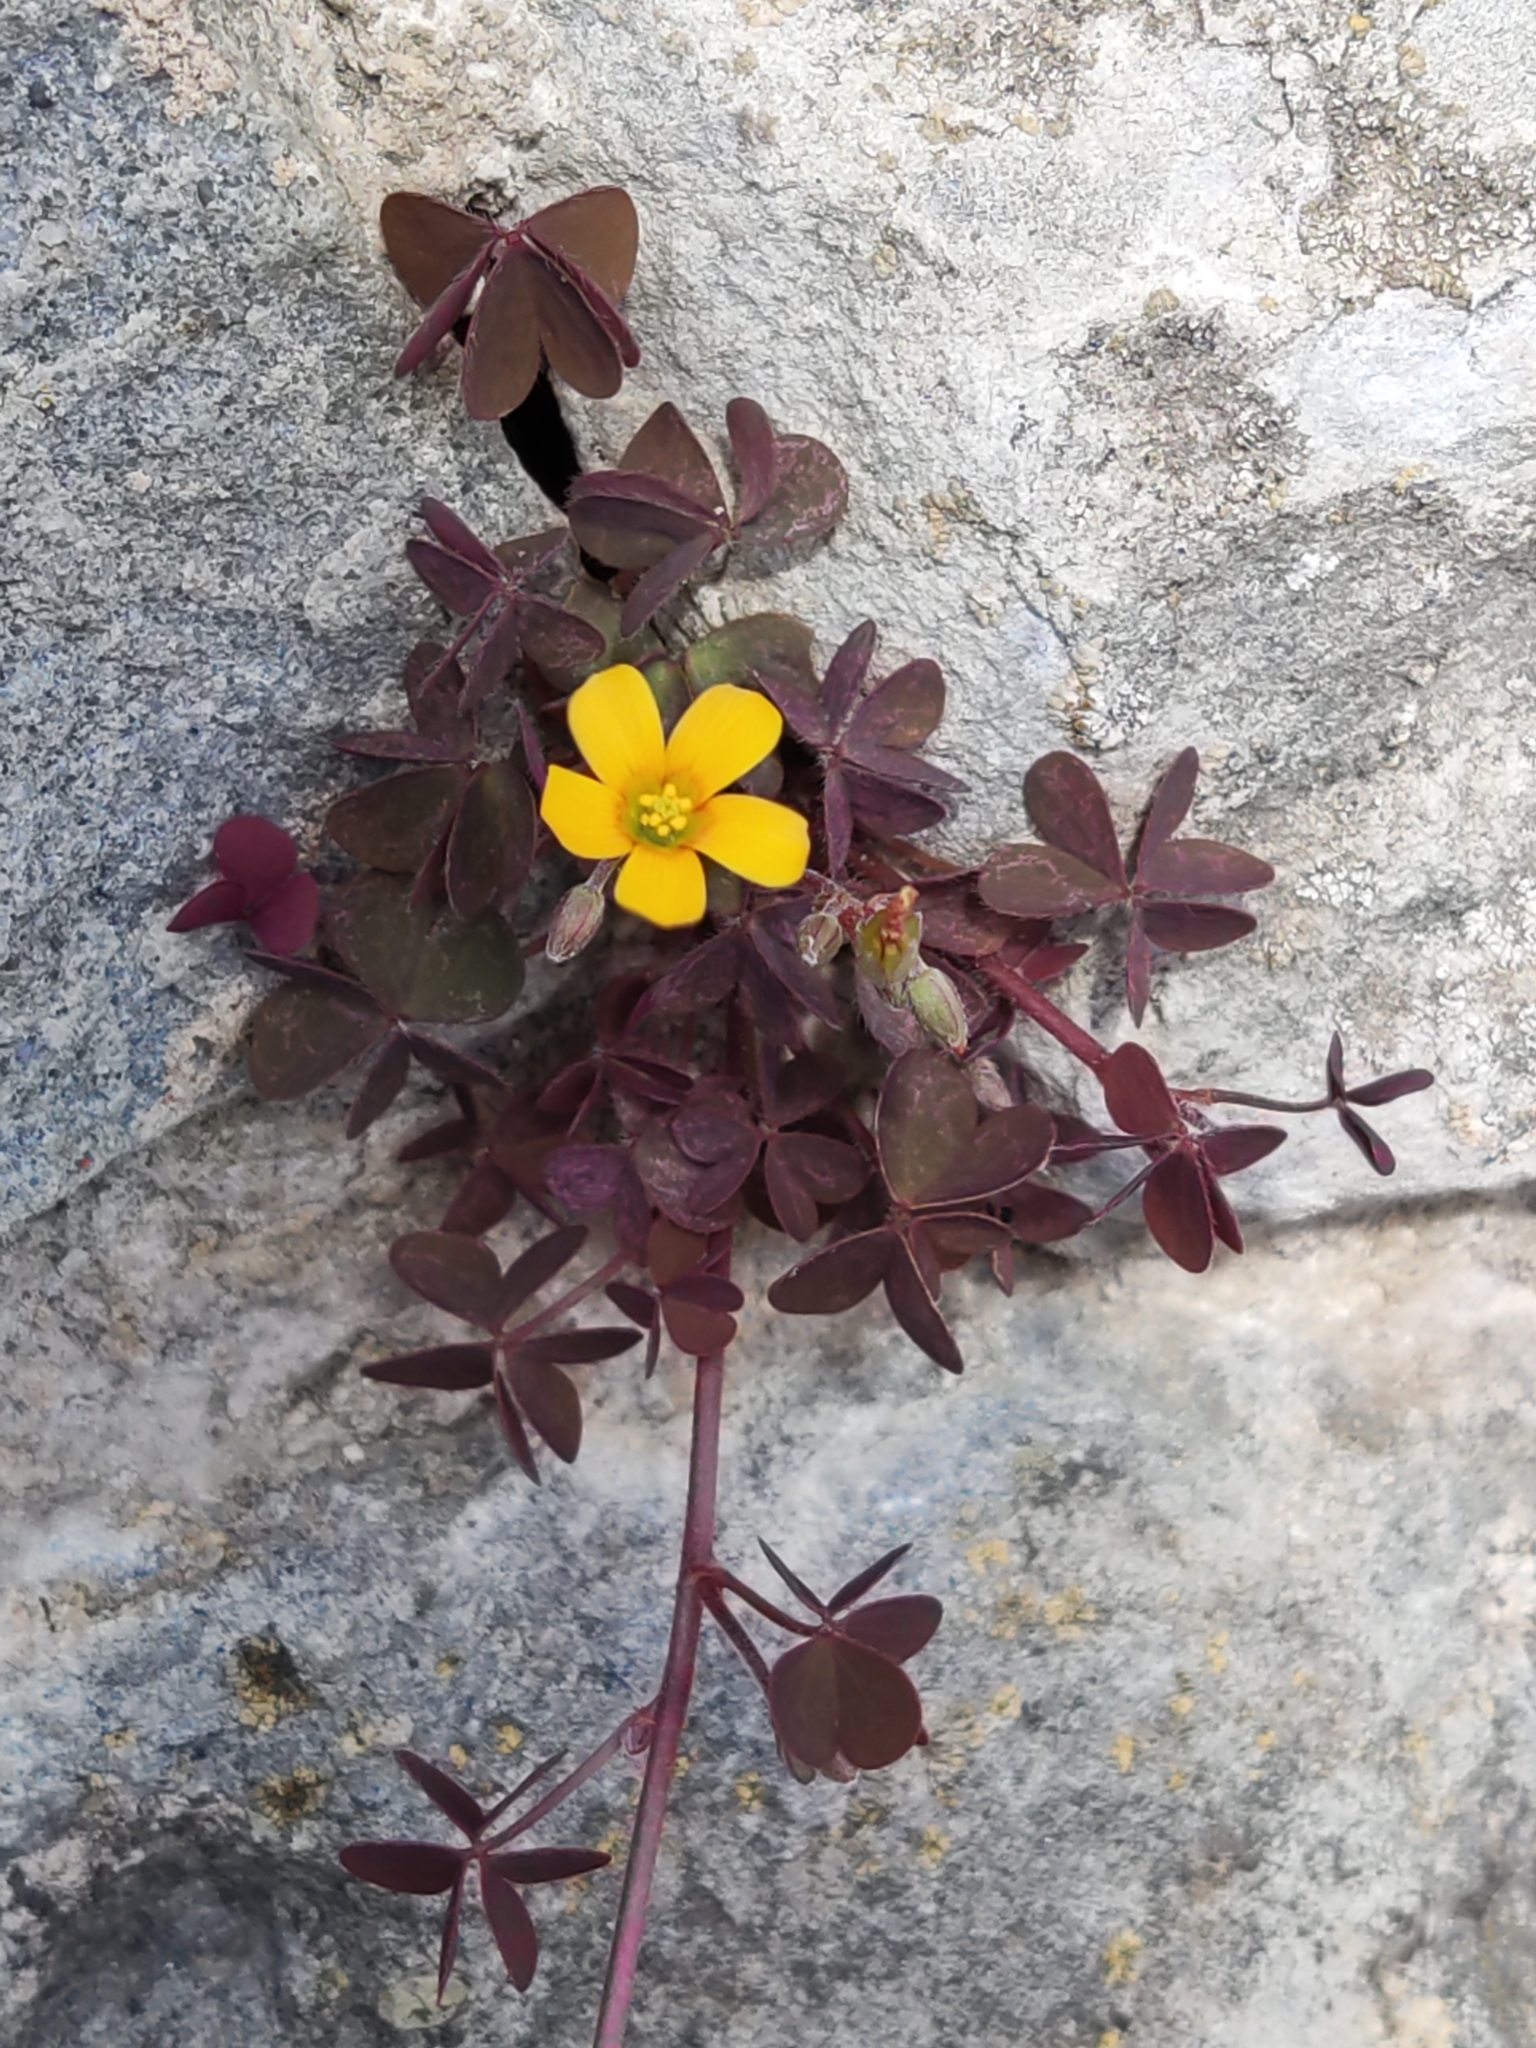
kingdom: Plantae
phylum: Tracheophyta
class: Magnoliopsida
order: Oxalidales
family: Oxalidaceae
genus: Oxalis
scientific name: Oxalis corniculata
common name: Procumbent yellow-sorrel
